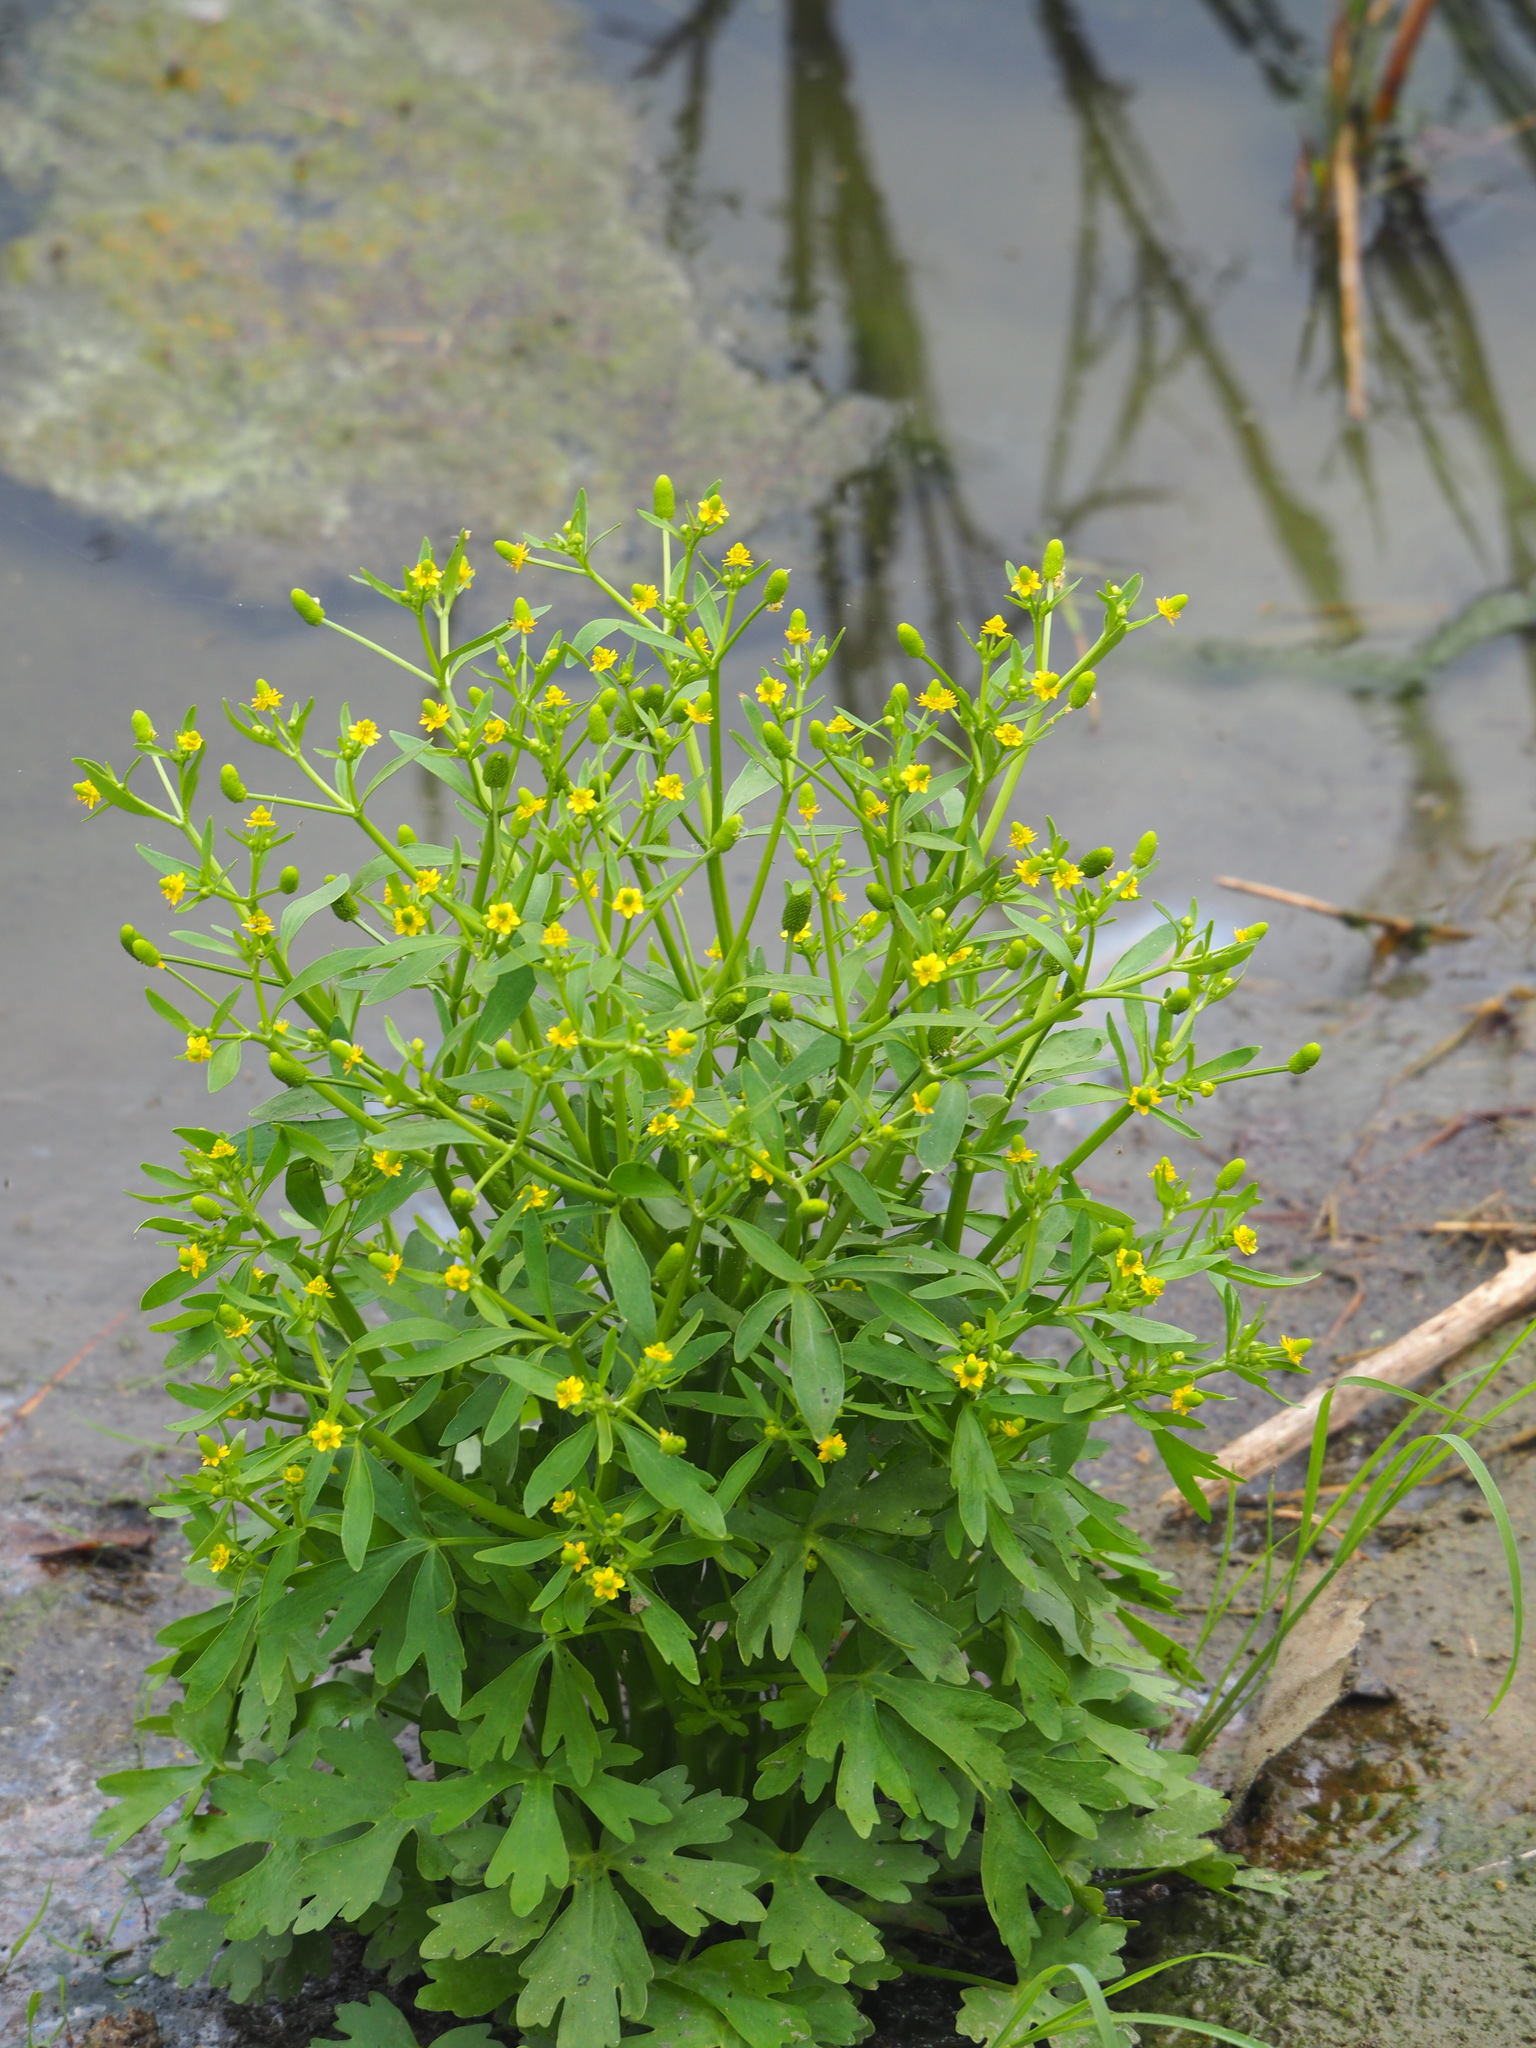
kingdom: Plantae
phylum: Tracheophyta
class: Magnoliopsida
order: Ranunculales
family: Ranunculaceae
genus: Ranunculus
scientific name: Ranunculus sceleratus
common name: Celery-leaved buttercup
